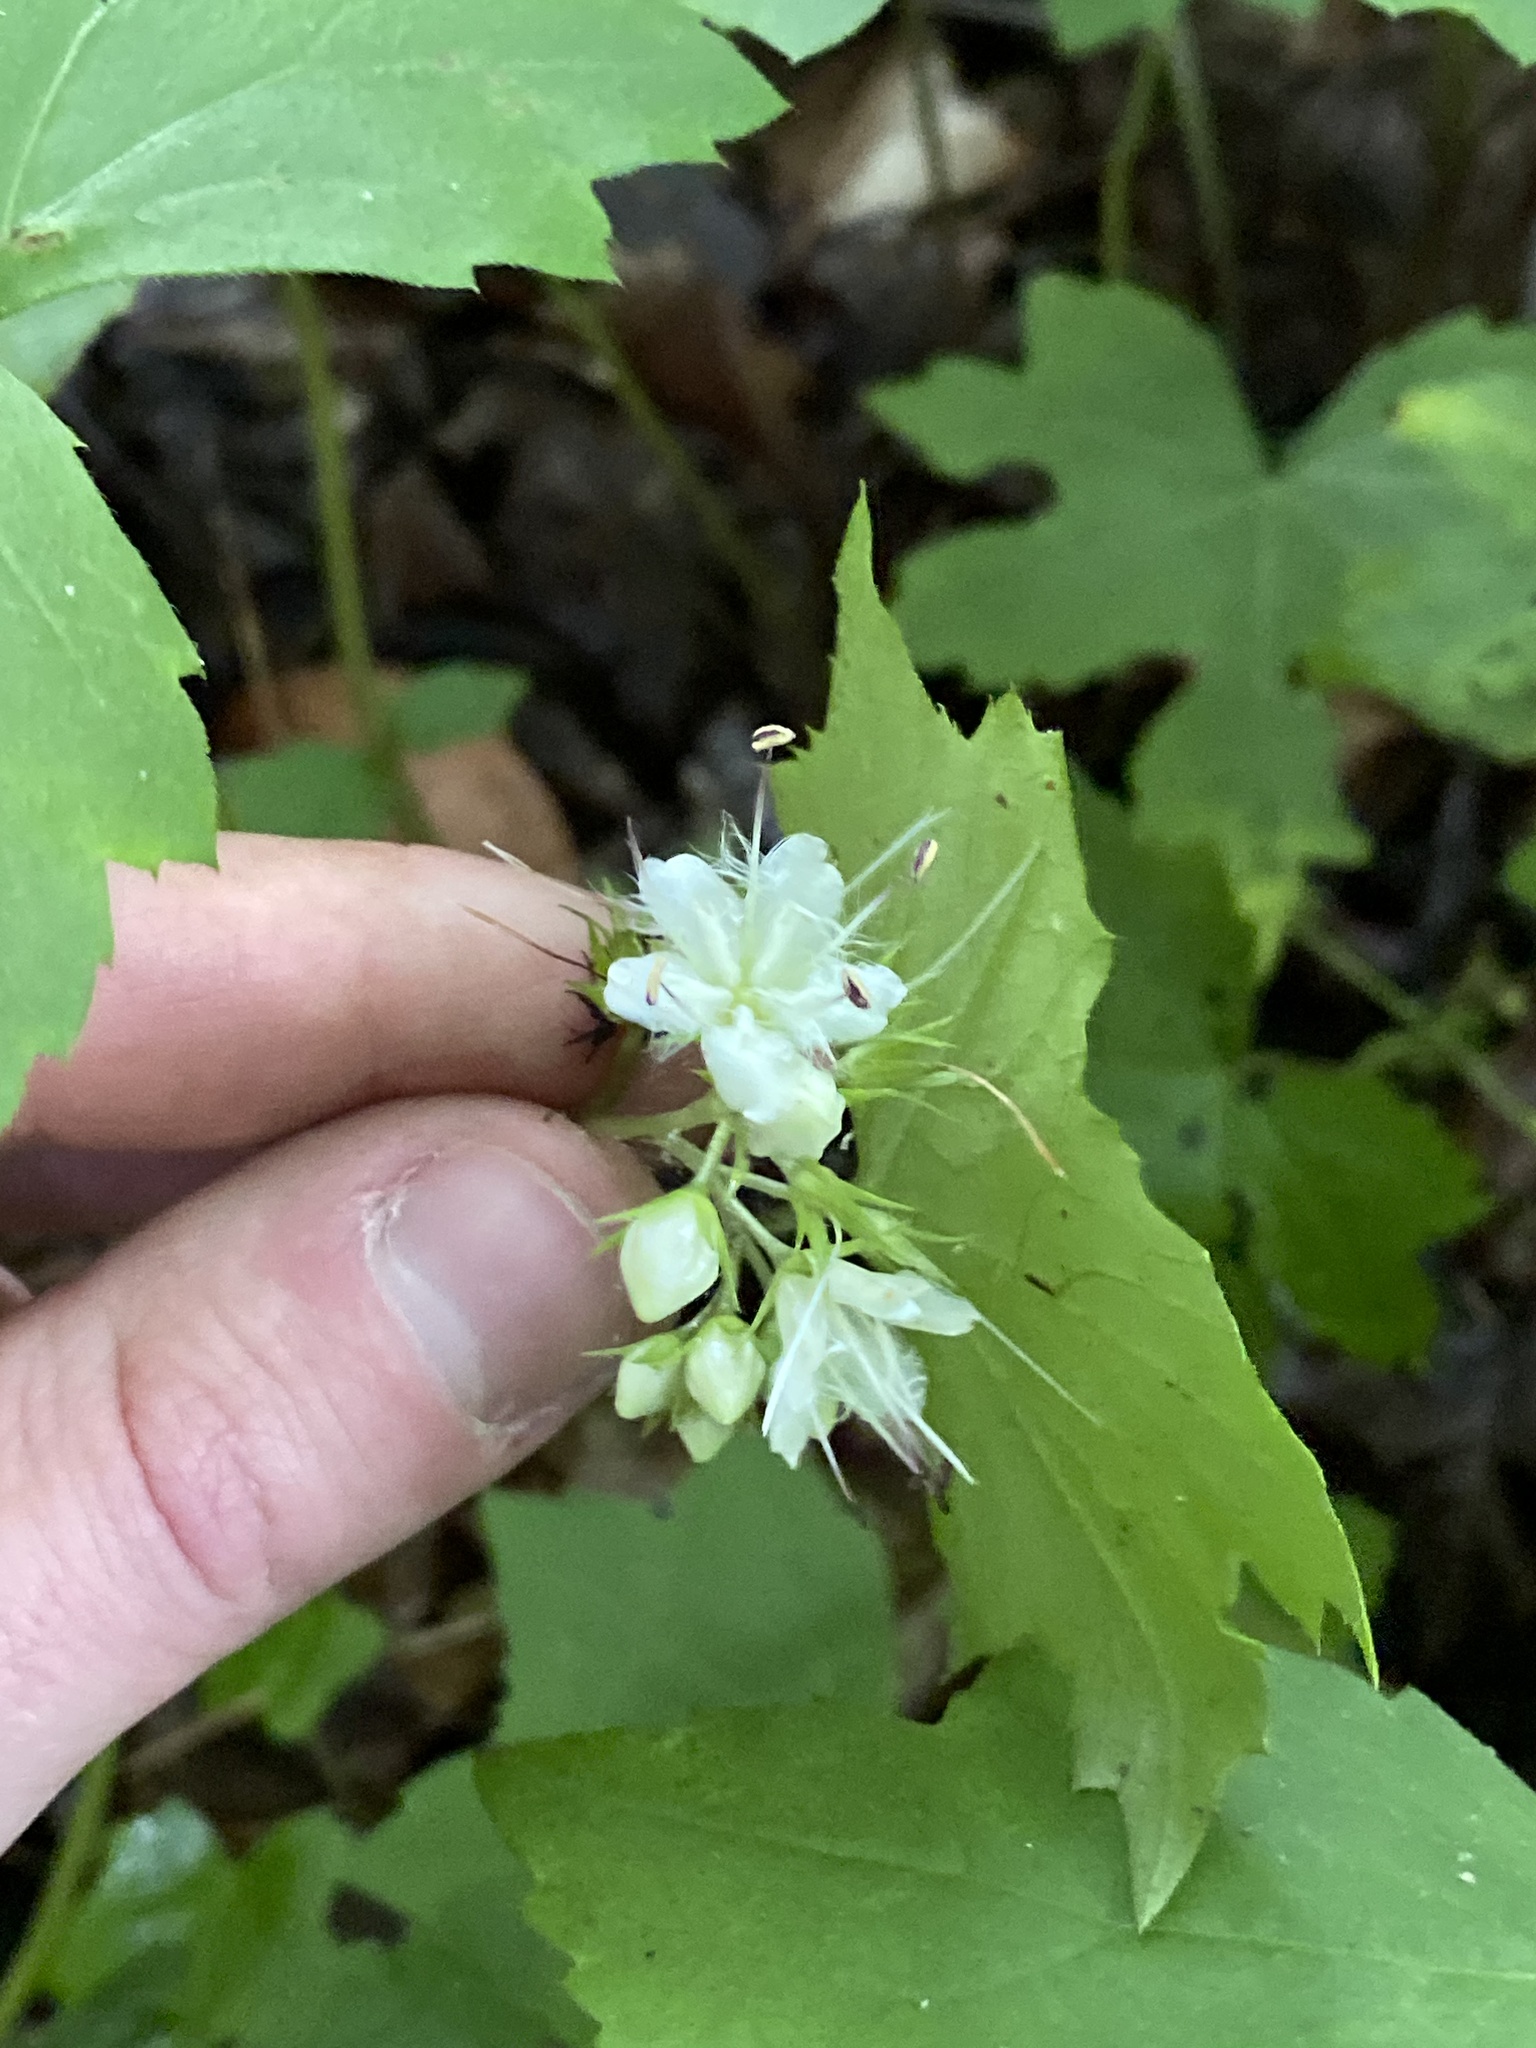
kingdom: Plantae
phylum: Tracheophyta
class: Magnoliopsida
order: Boraginales
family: Hydrophyllaceae
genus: Hydrophyllum
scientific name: Hydrophyllum canadense
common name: Canada waterleaf
